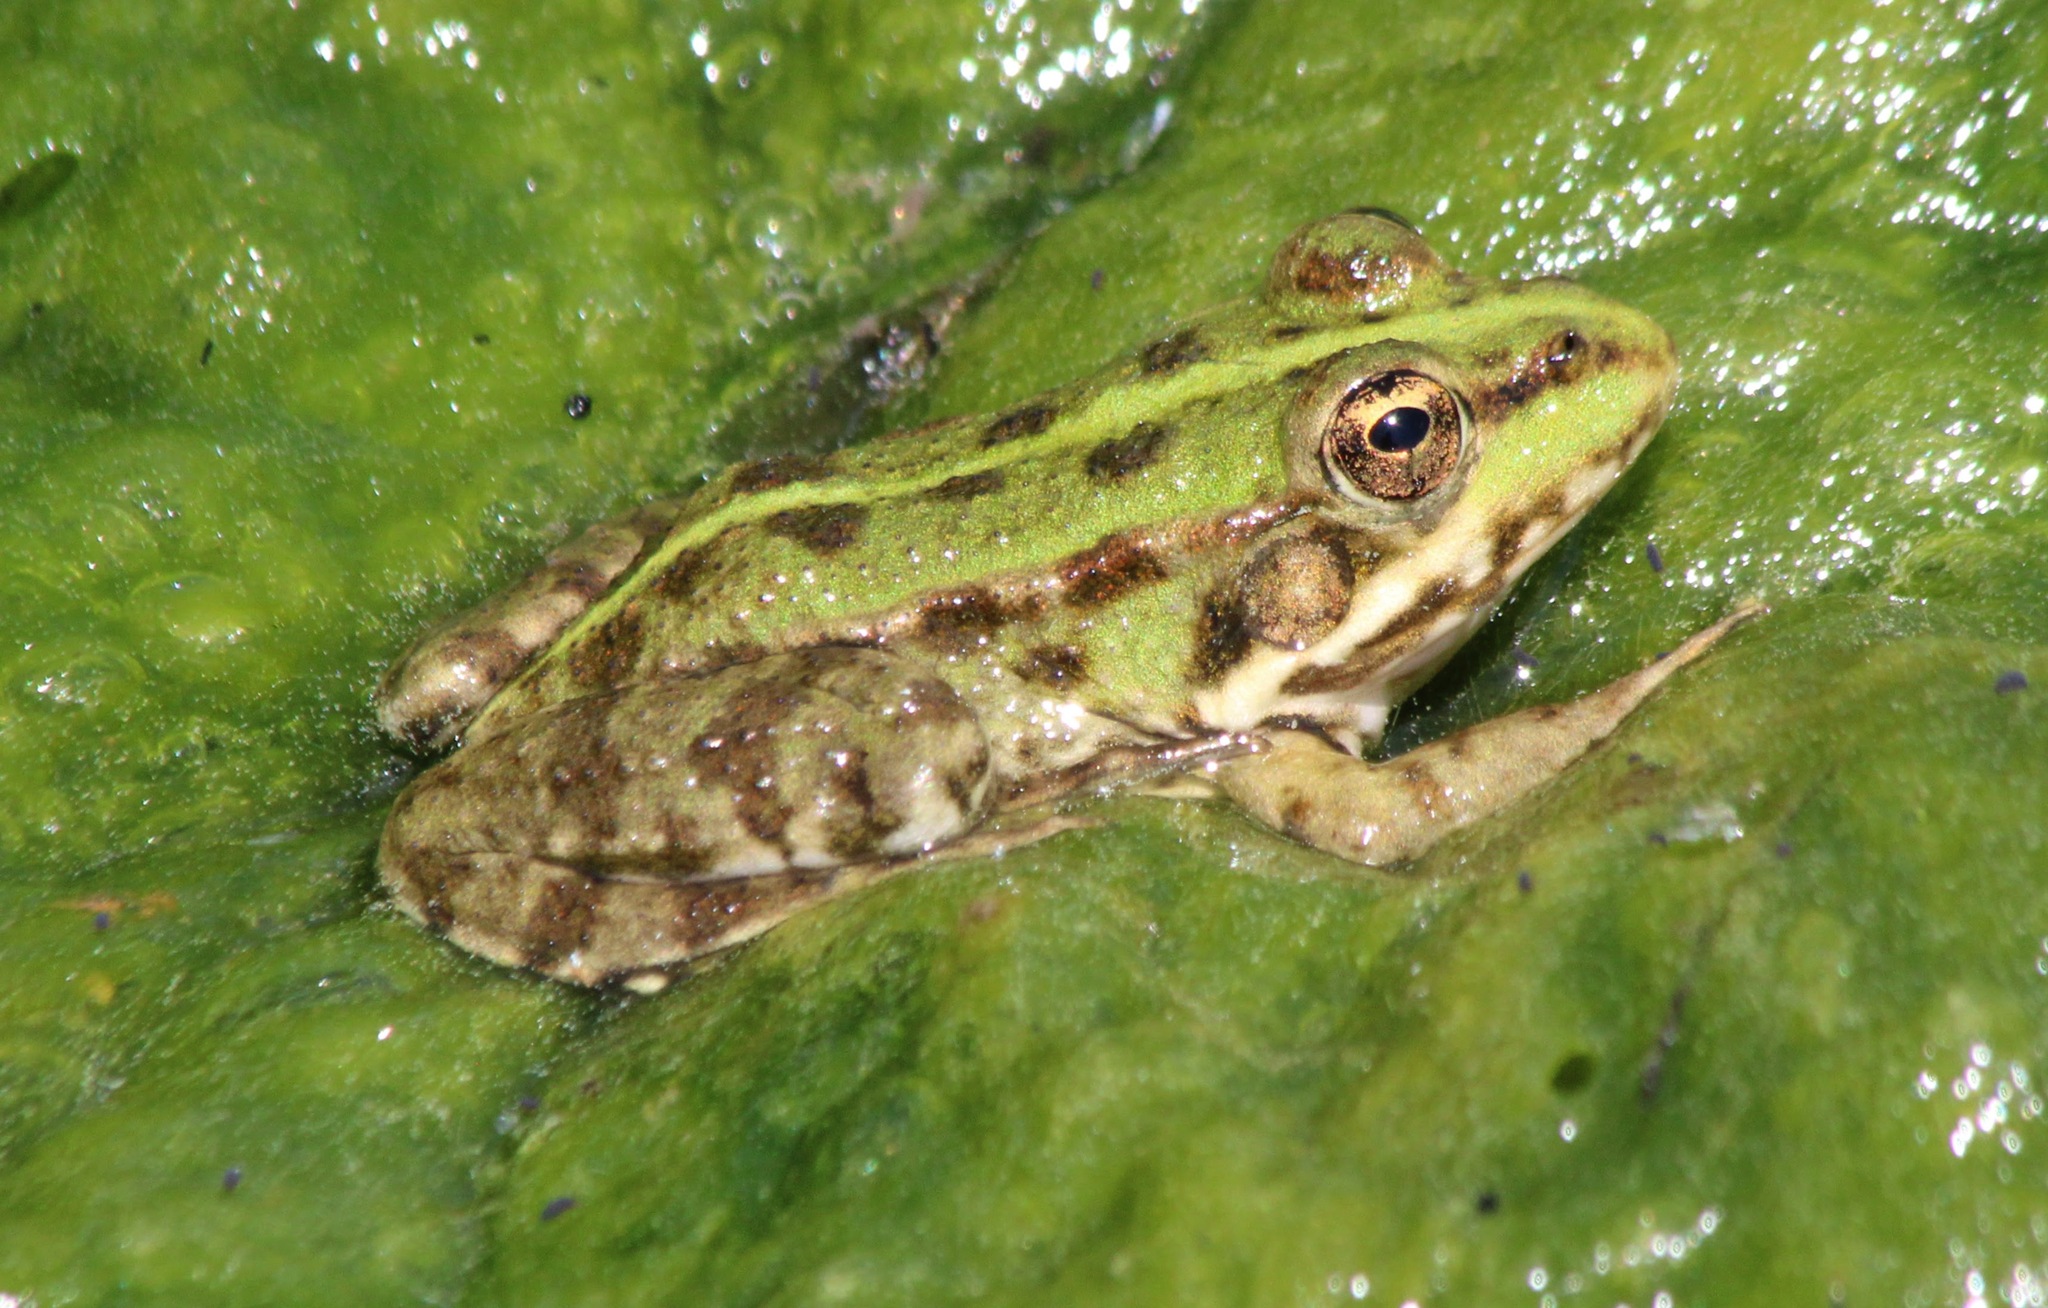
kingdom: Animalia
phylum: Chordata
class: Amphibia
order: Anura
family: Ranidae
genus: Pelophylax
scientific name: Pelophylax ridibundus
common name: Marsh frog
